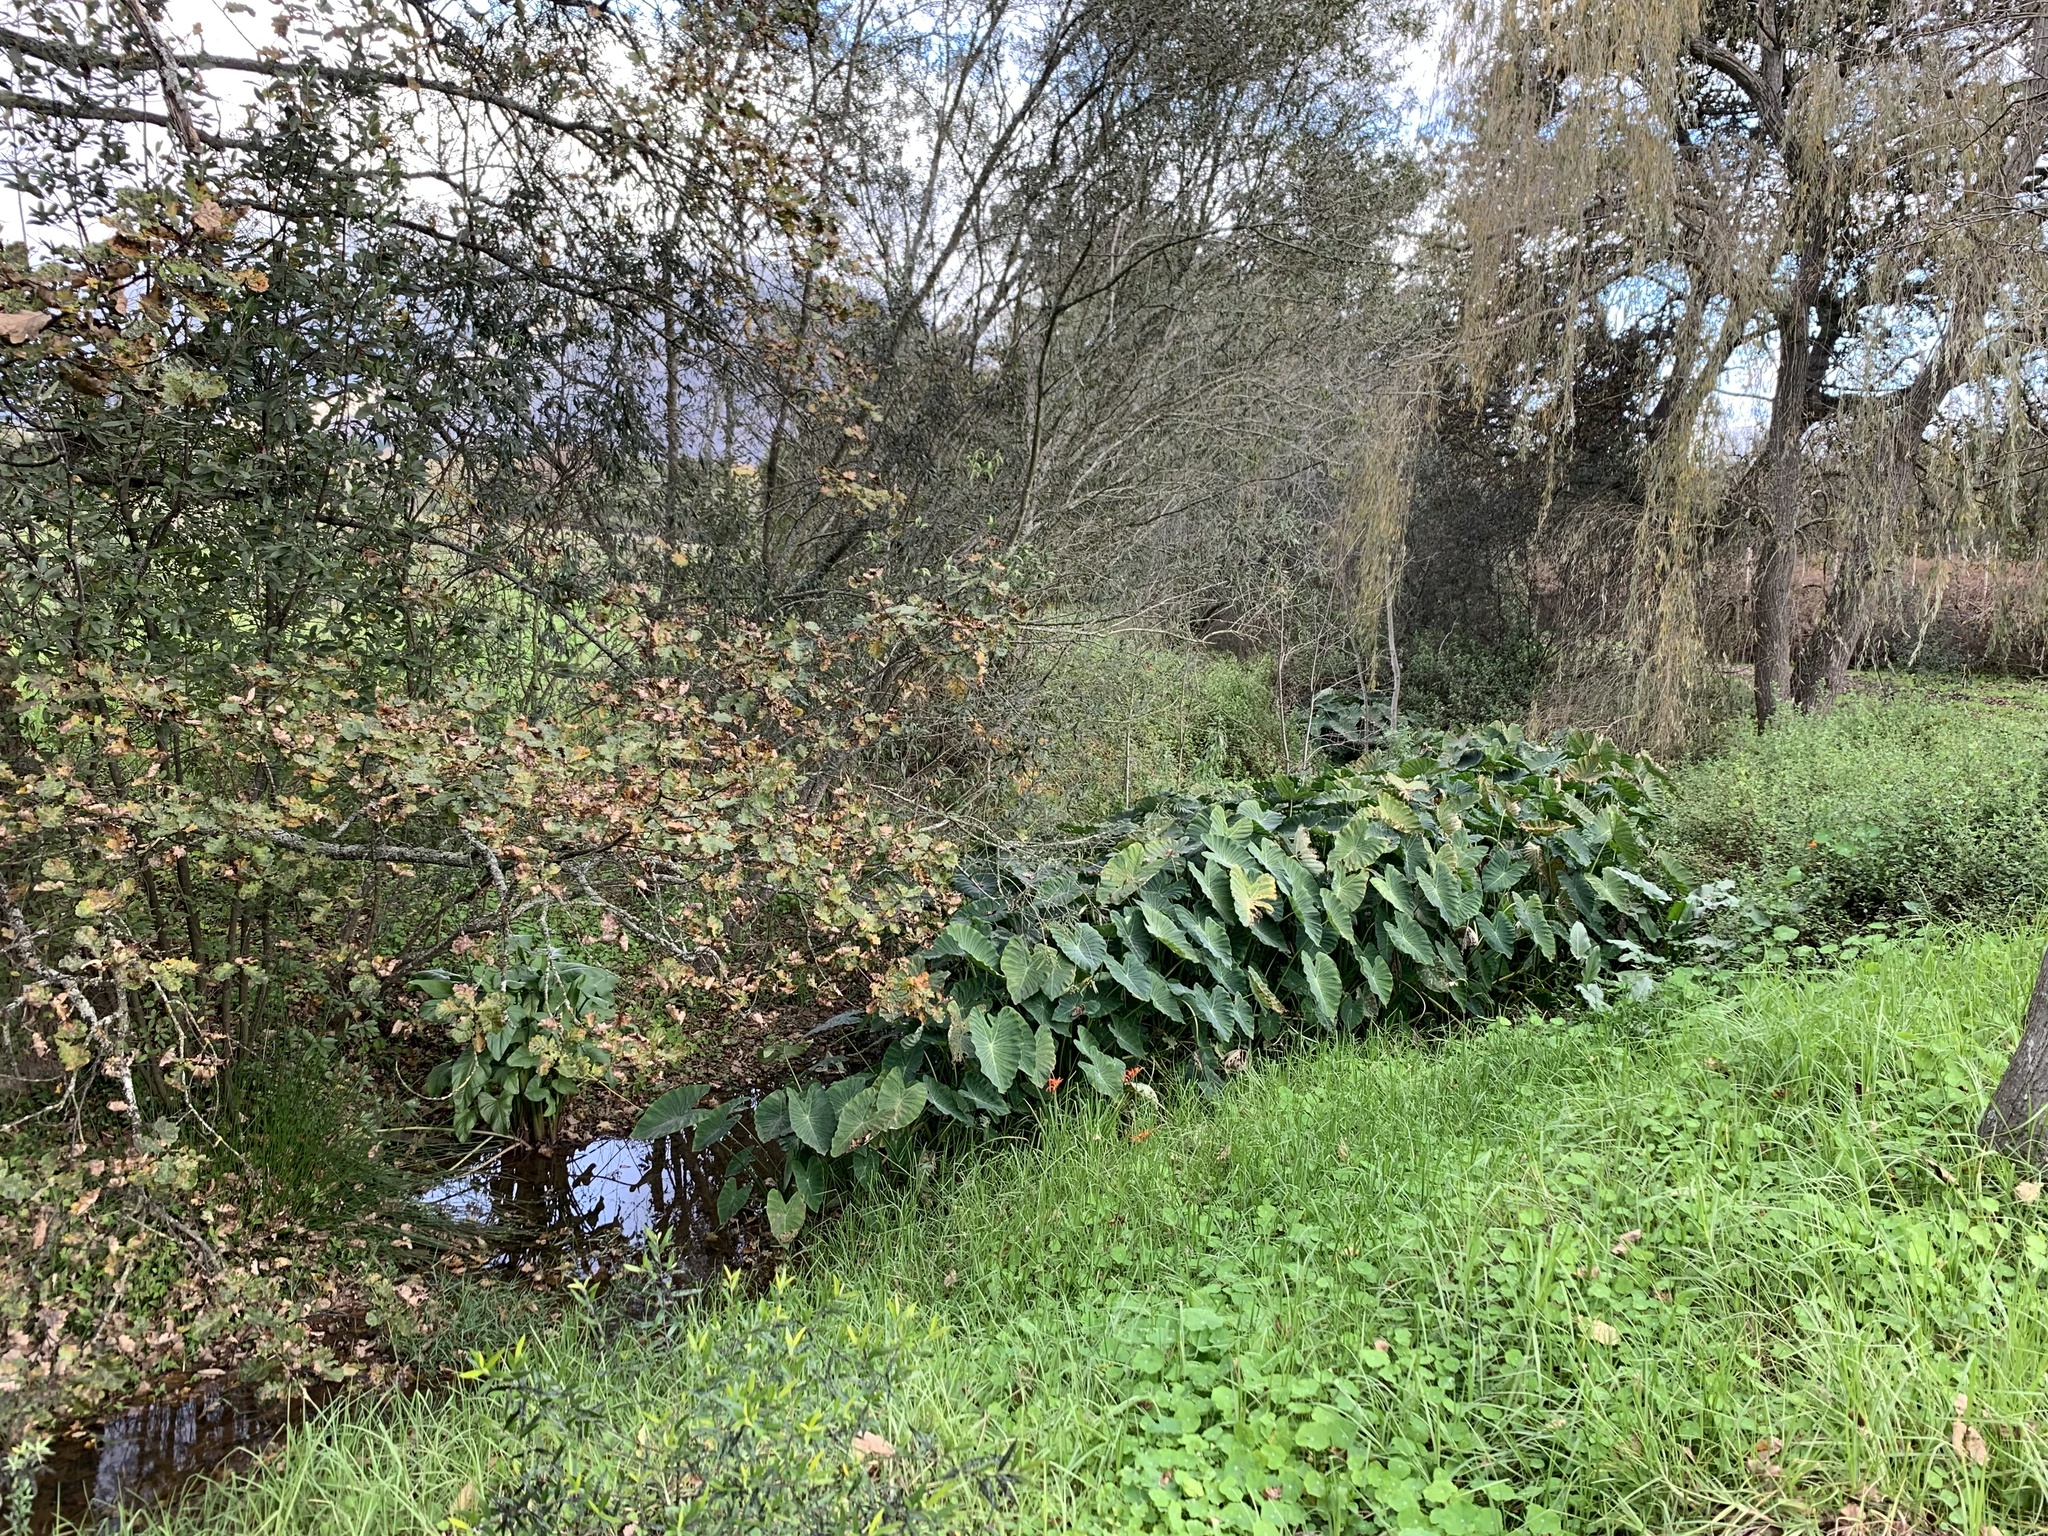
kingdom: Plantae
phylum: Tracheophyta
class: Liliopsida
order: Alismatales
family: Araceae
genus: Colocasia
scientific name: Colocasia esculenta
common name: Taro
